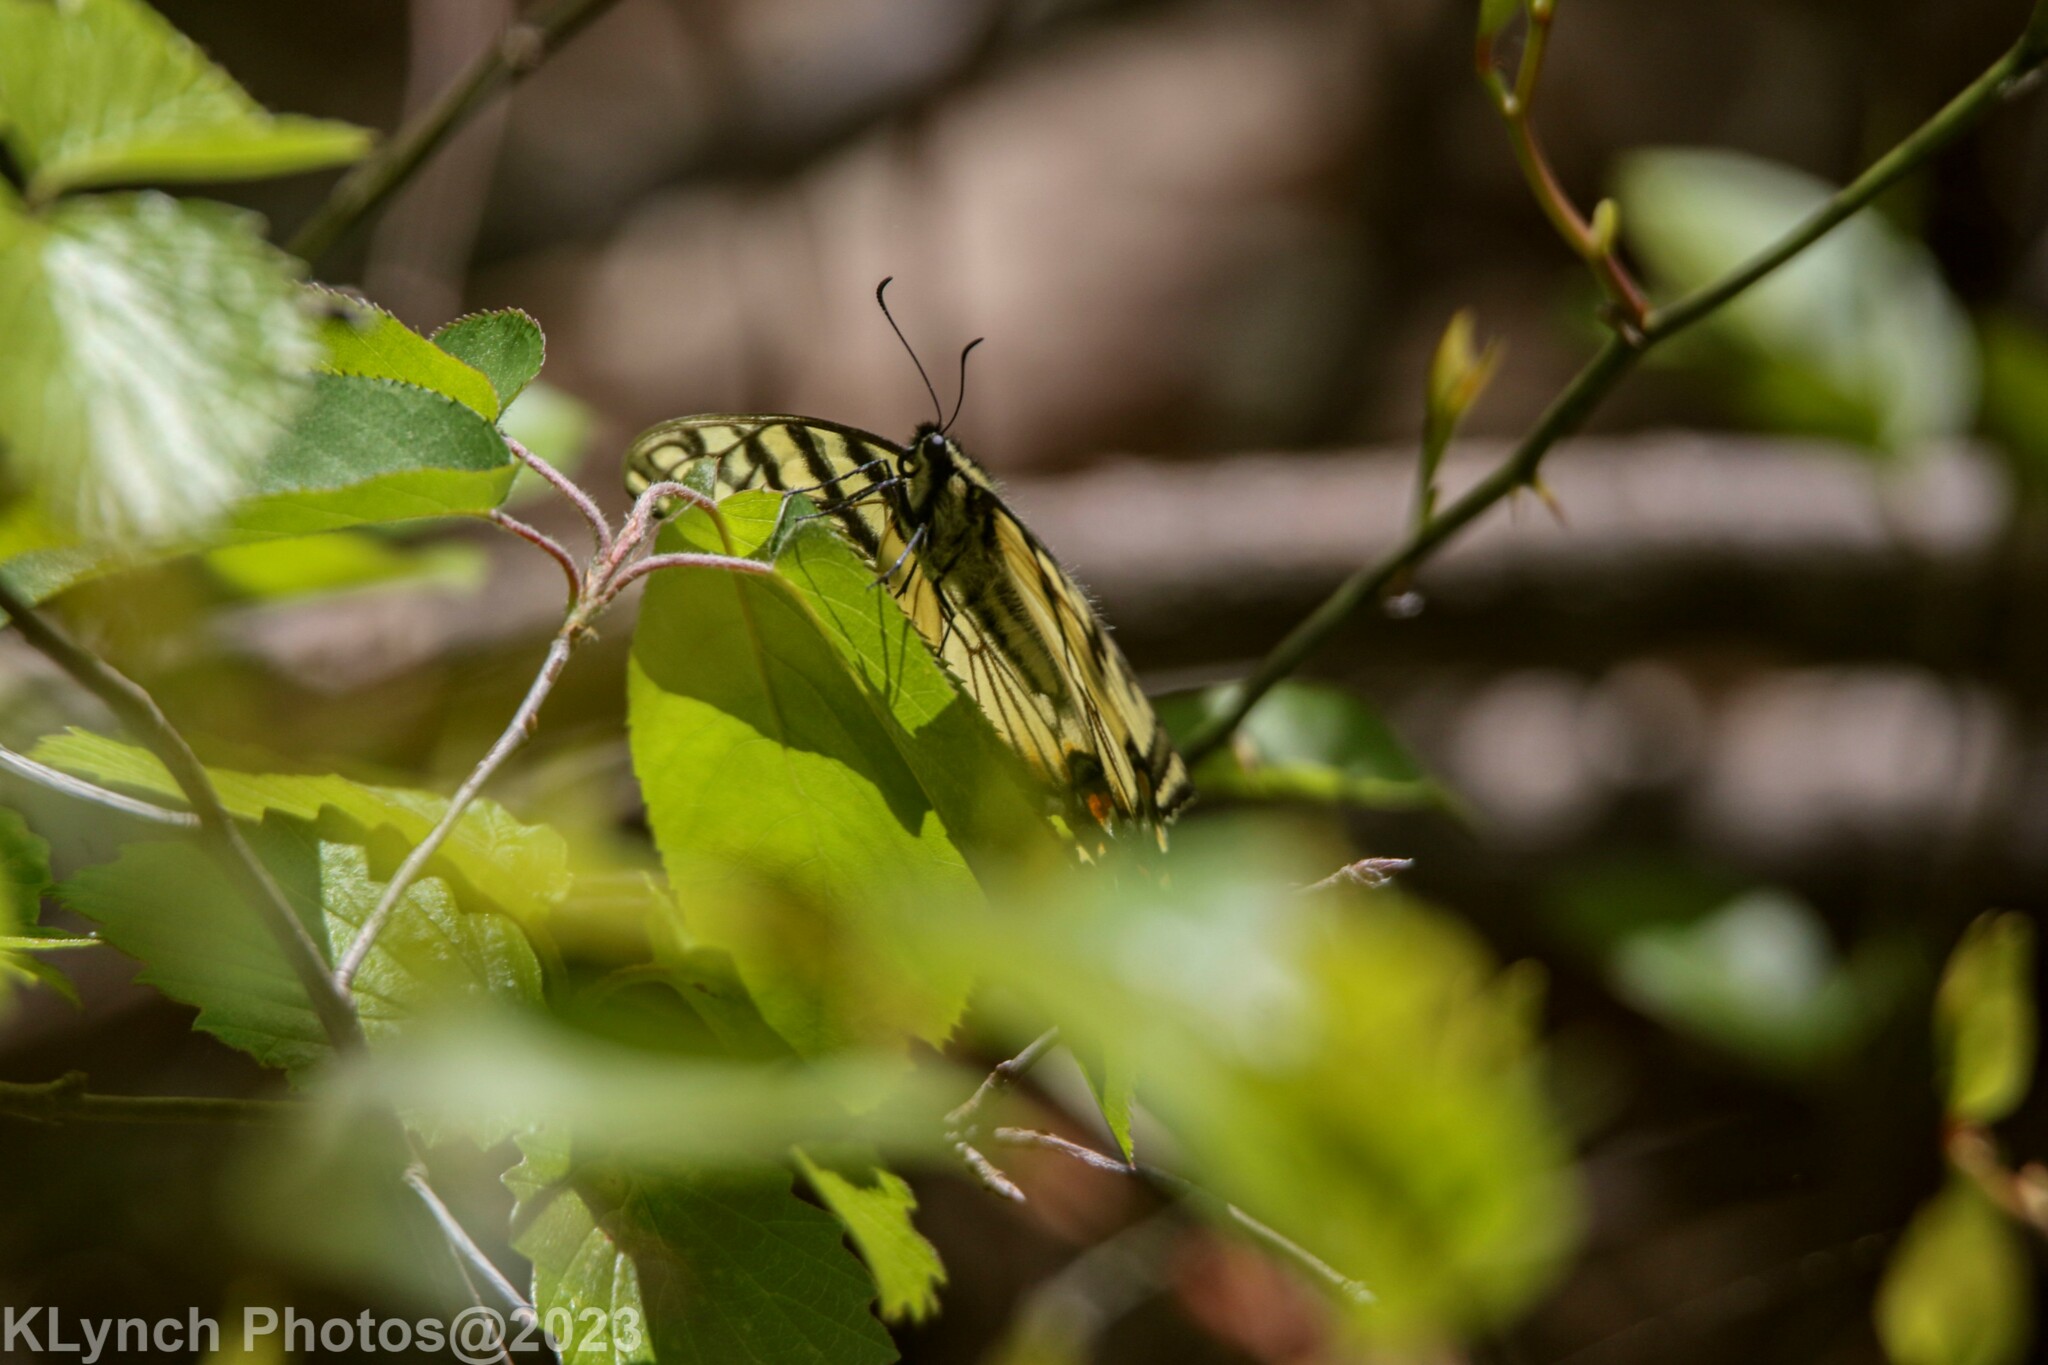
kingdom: Animalia
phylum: Arthropoda
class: Insecta
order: Lepidoptera
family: Papilionidae
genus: Papilio
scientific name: Papilio glaucus
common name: Tiger swallowtail
